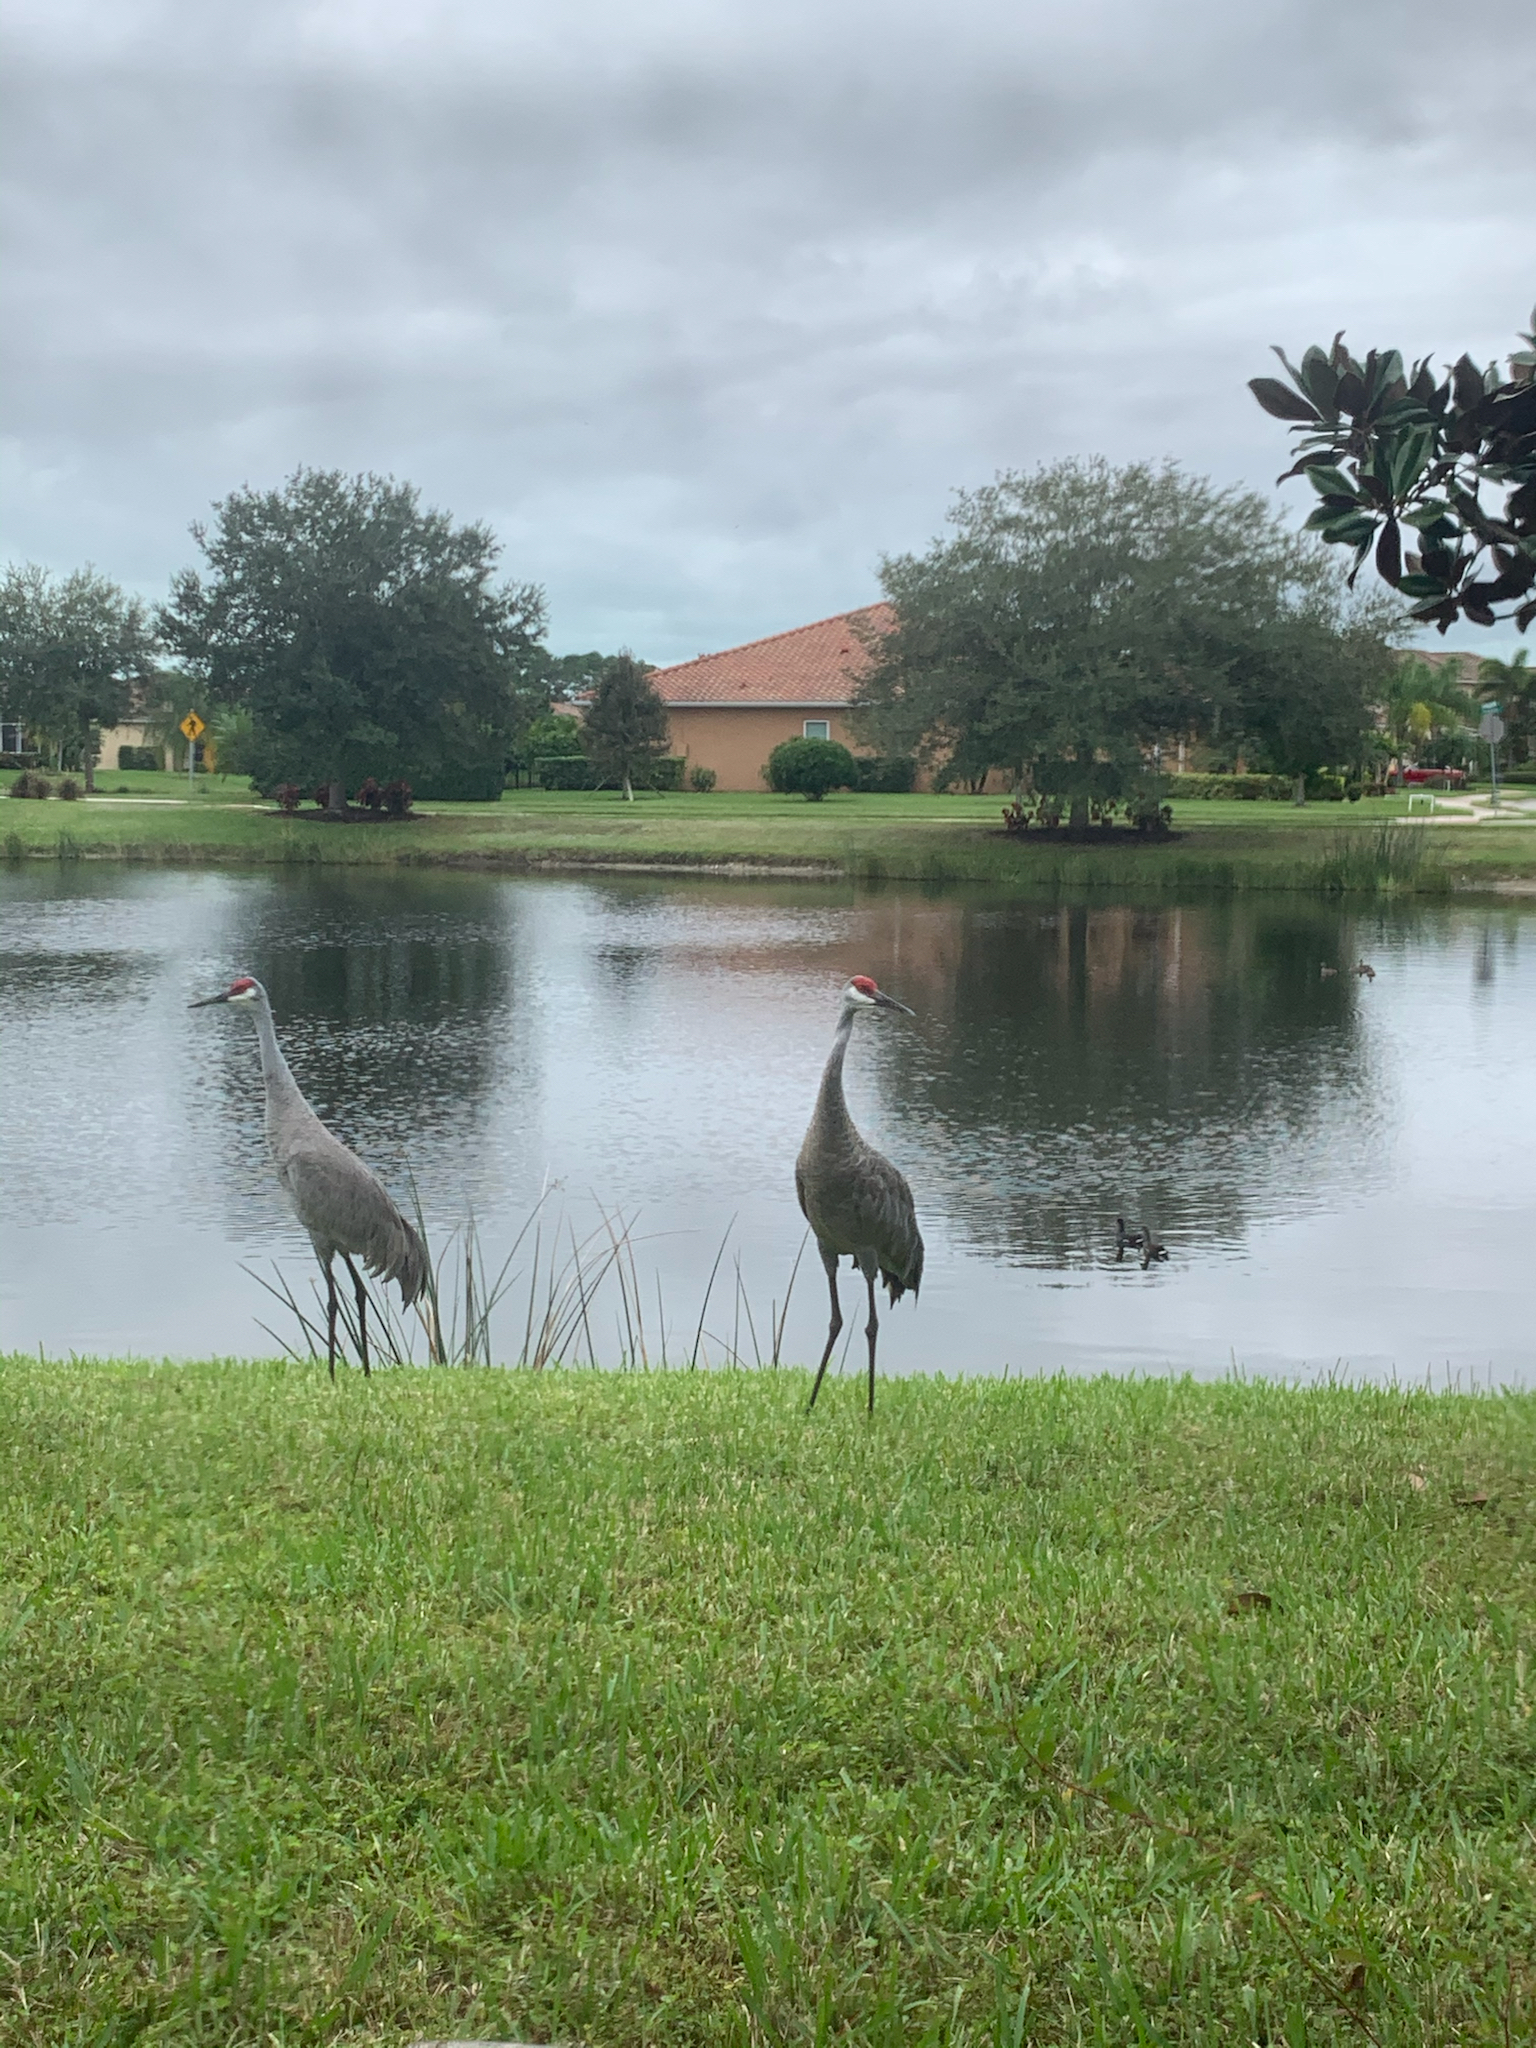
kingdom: Animalia
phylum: Chordata
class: Aves
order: Gruiformes
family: Gruidae
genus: Grus
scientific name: Grus canadensis
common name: Sandhill crane
